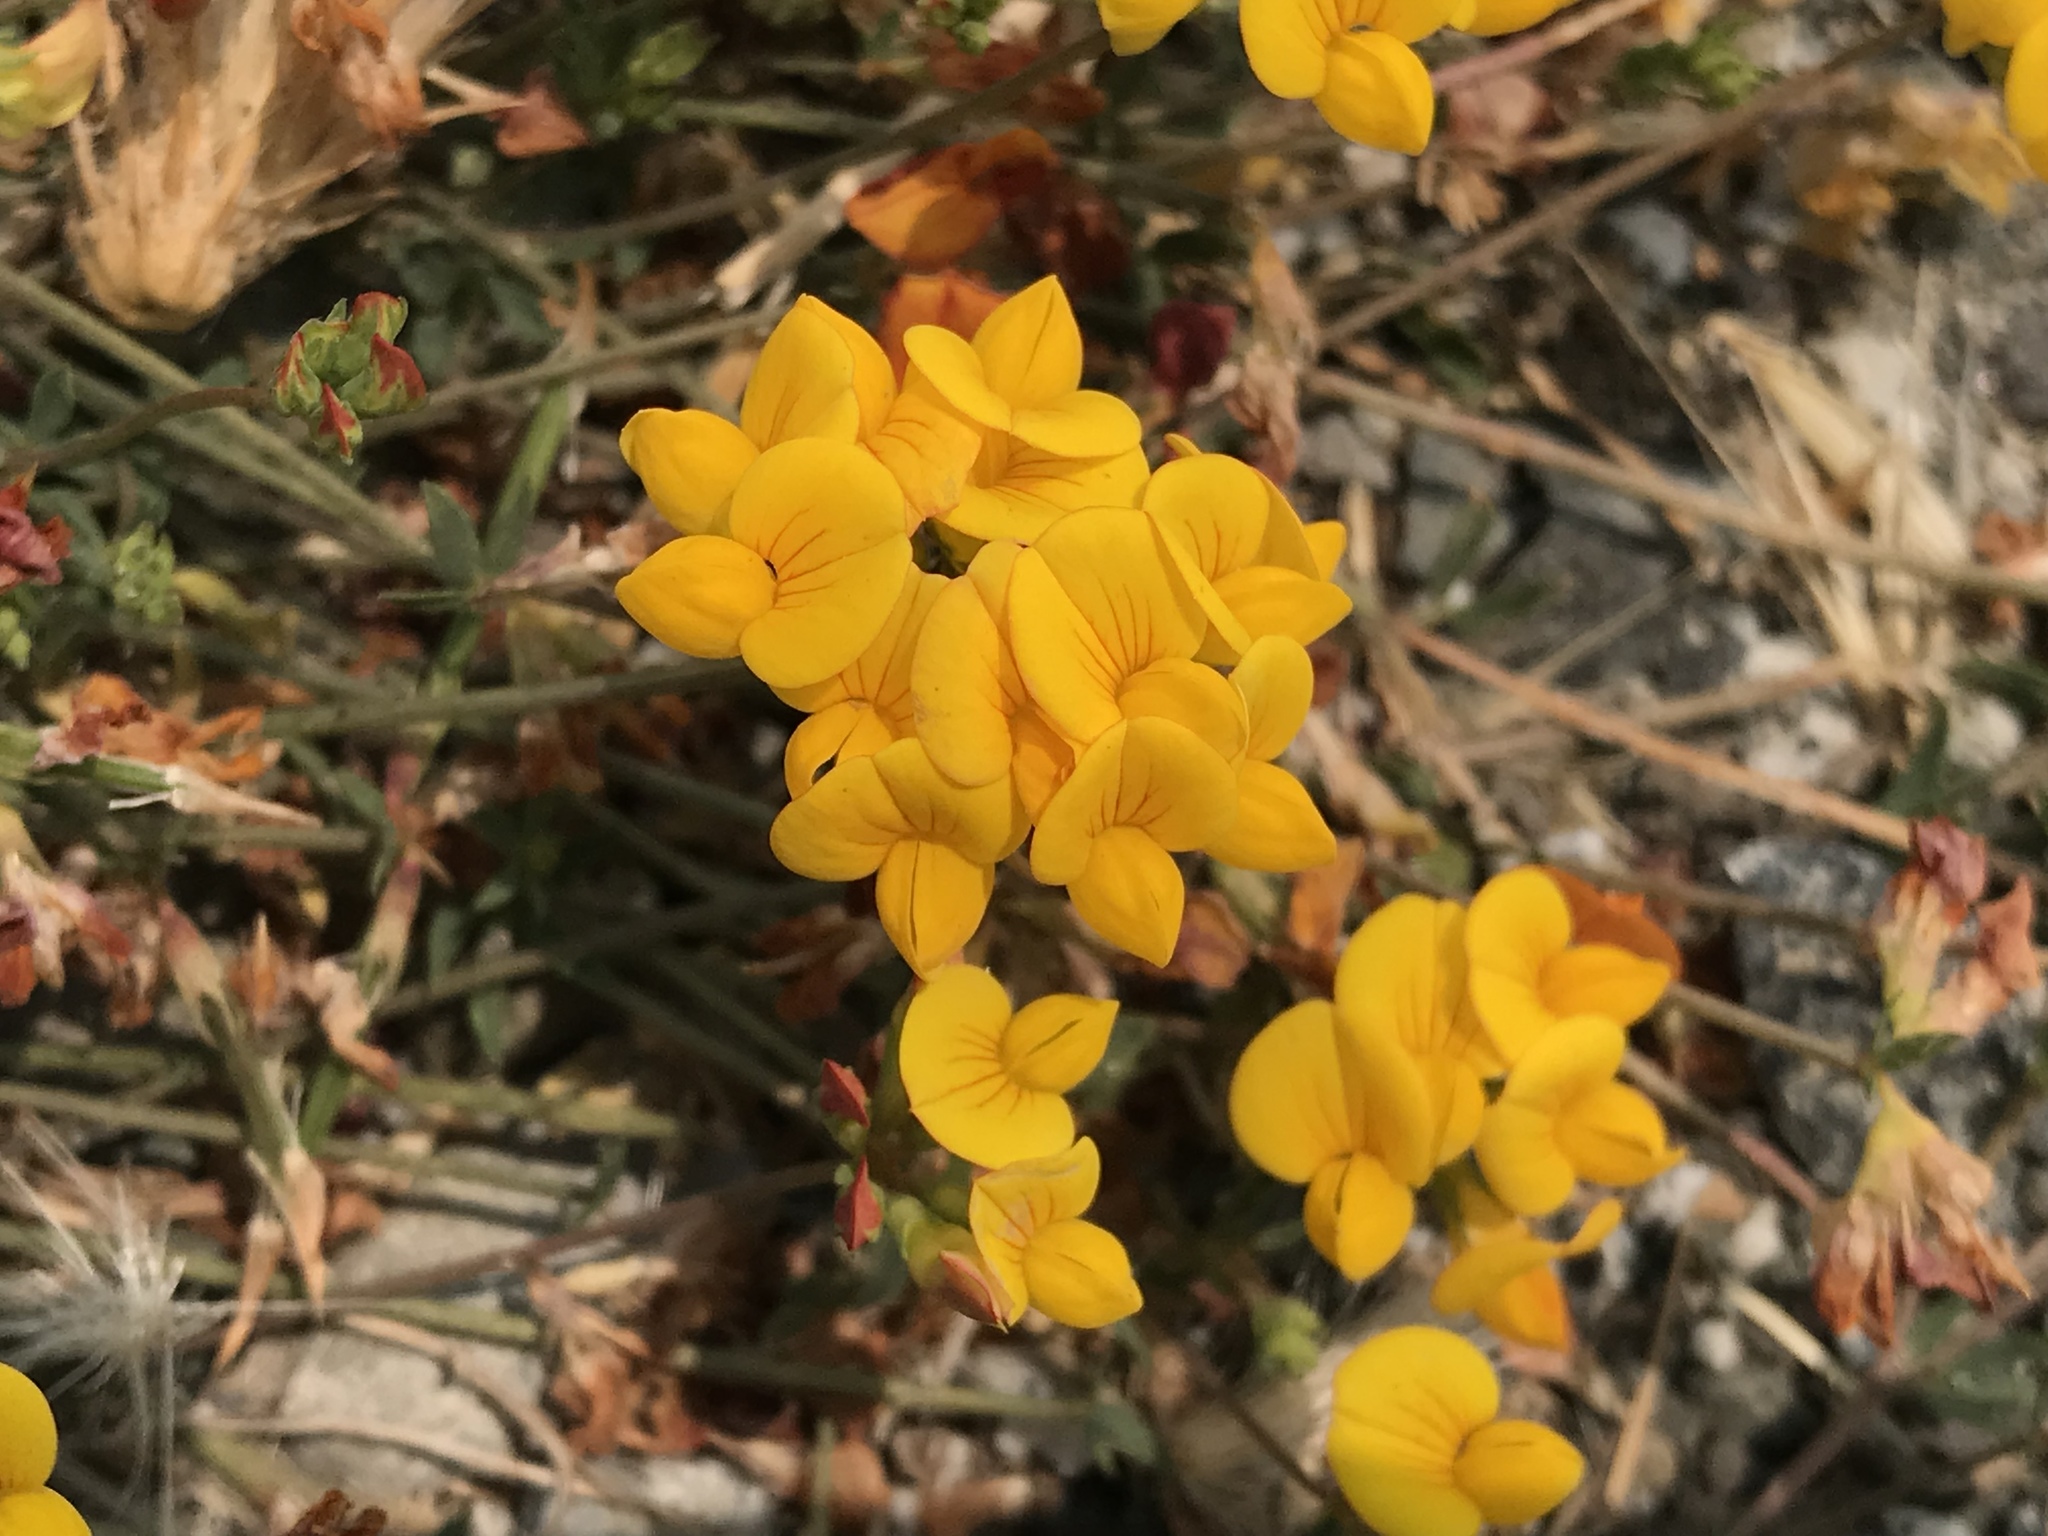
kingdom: Plantae
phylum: Tracheophyta
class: Magnoliopsida
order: Fabales
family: Fabaceae
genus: Lotus
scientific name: Lotus corniculatus
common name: Common bird's-foot-trefoil
